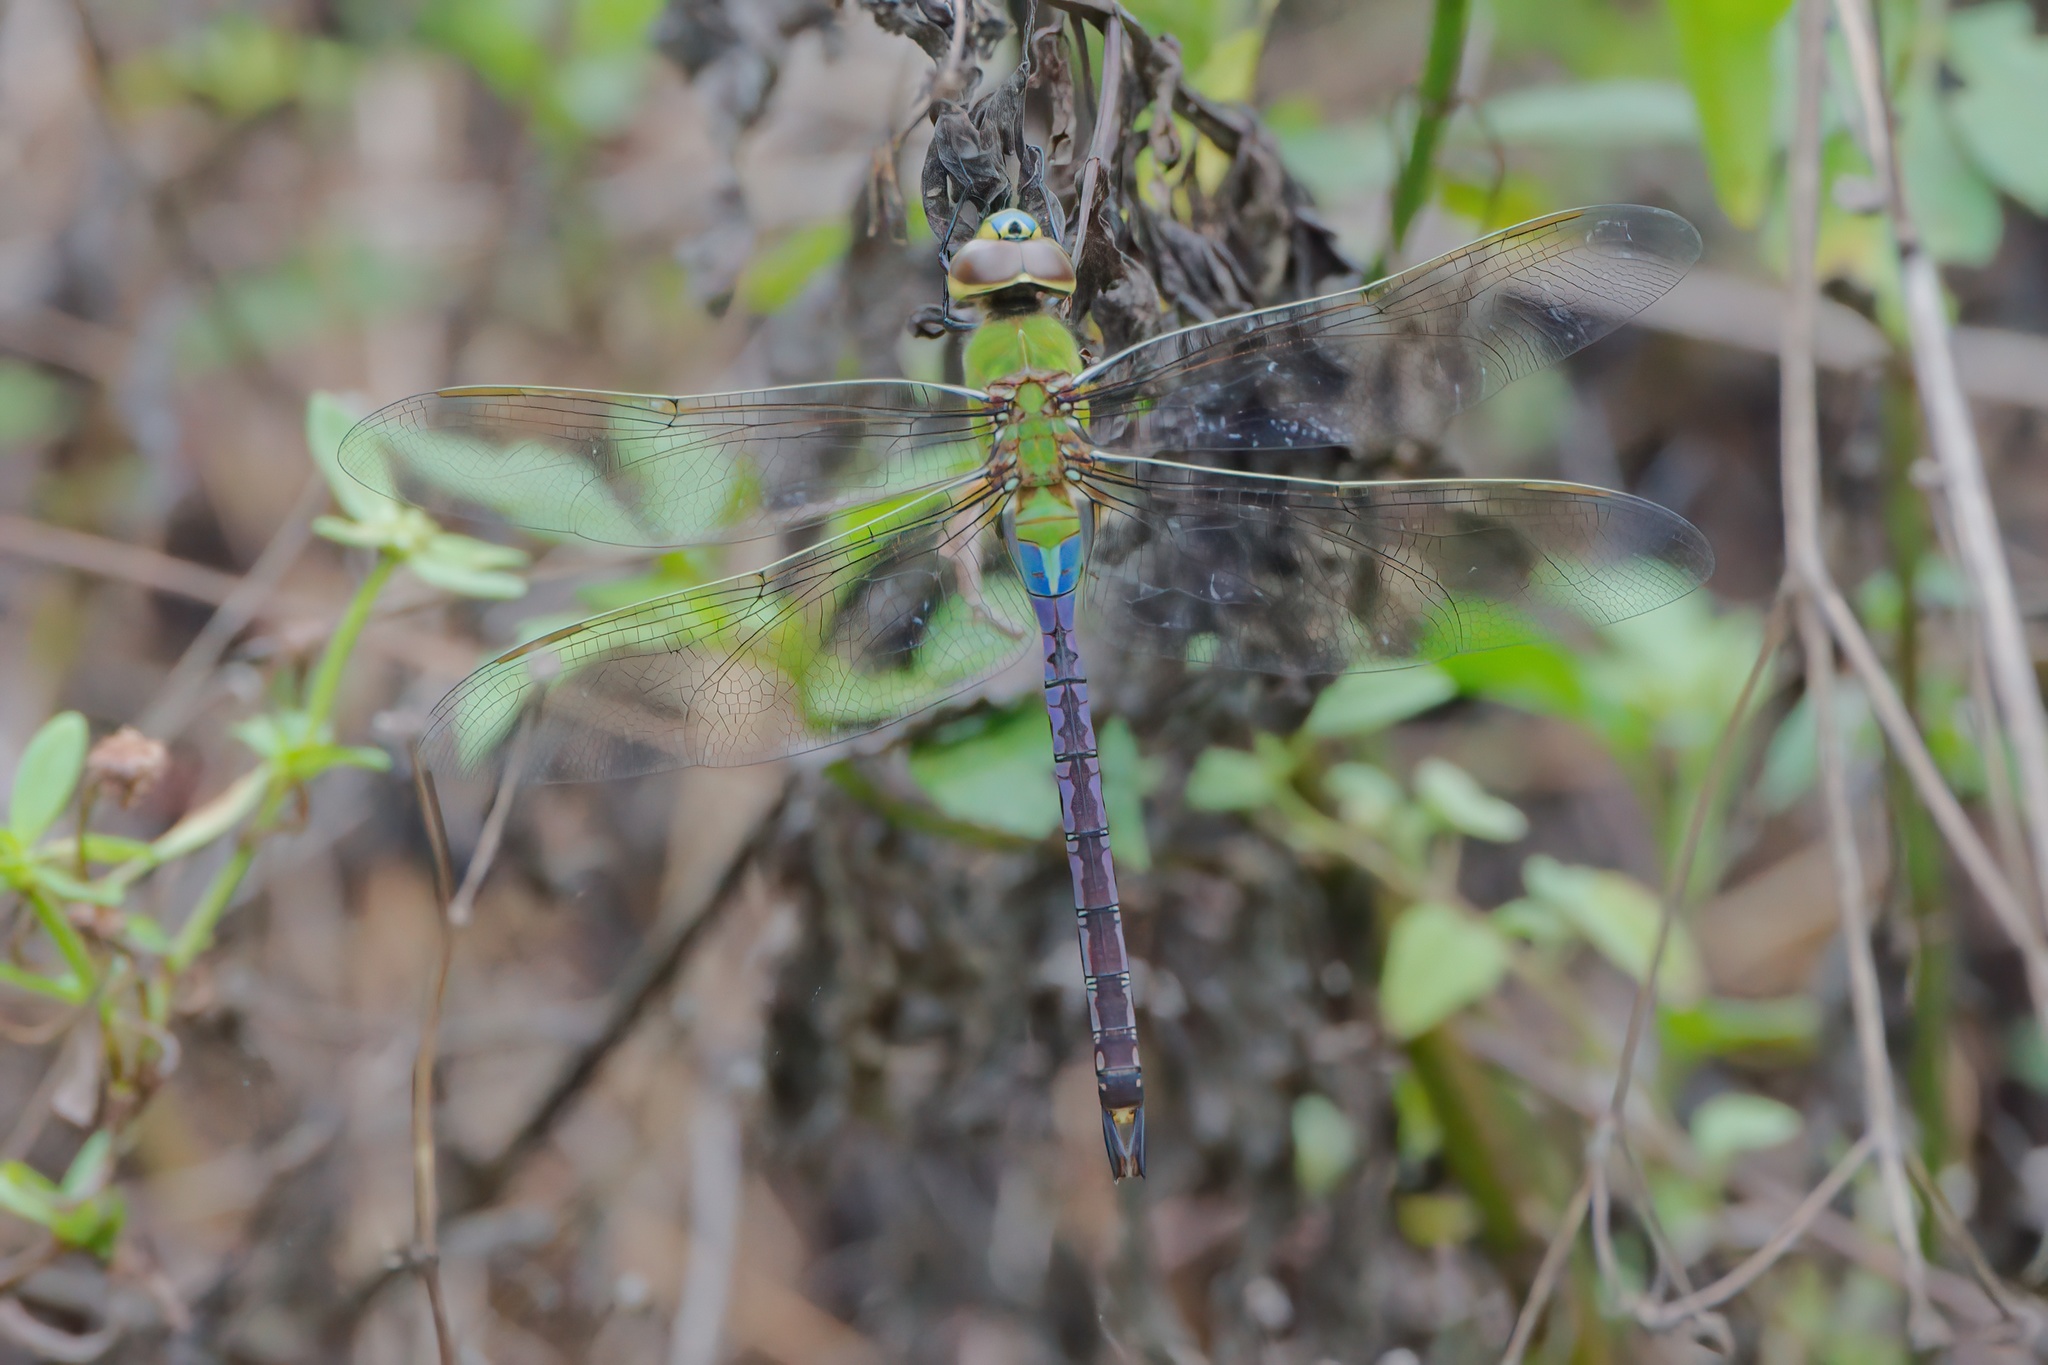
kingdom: Animalia
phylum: Arthropoda
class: Insecta
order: Odonata
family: Aeshnidae
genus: Anax
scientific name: Anax junius
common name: Common green darner
